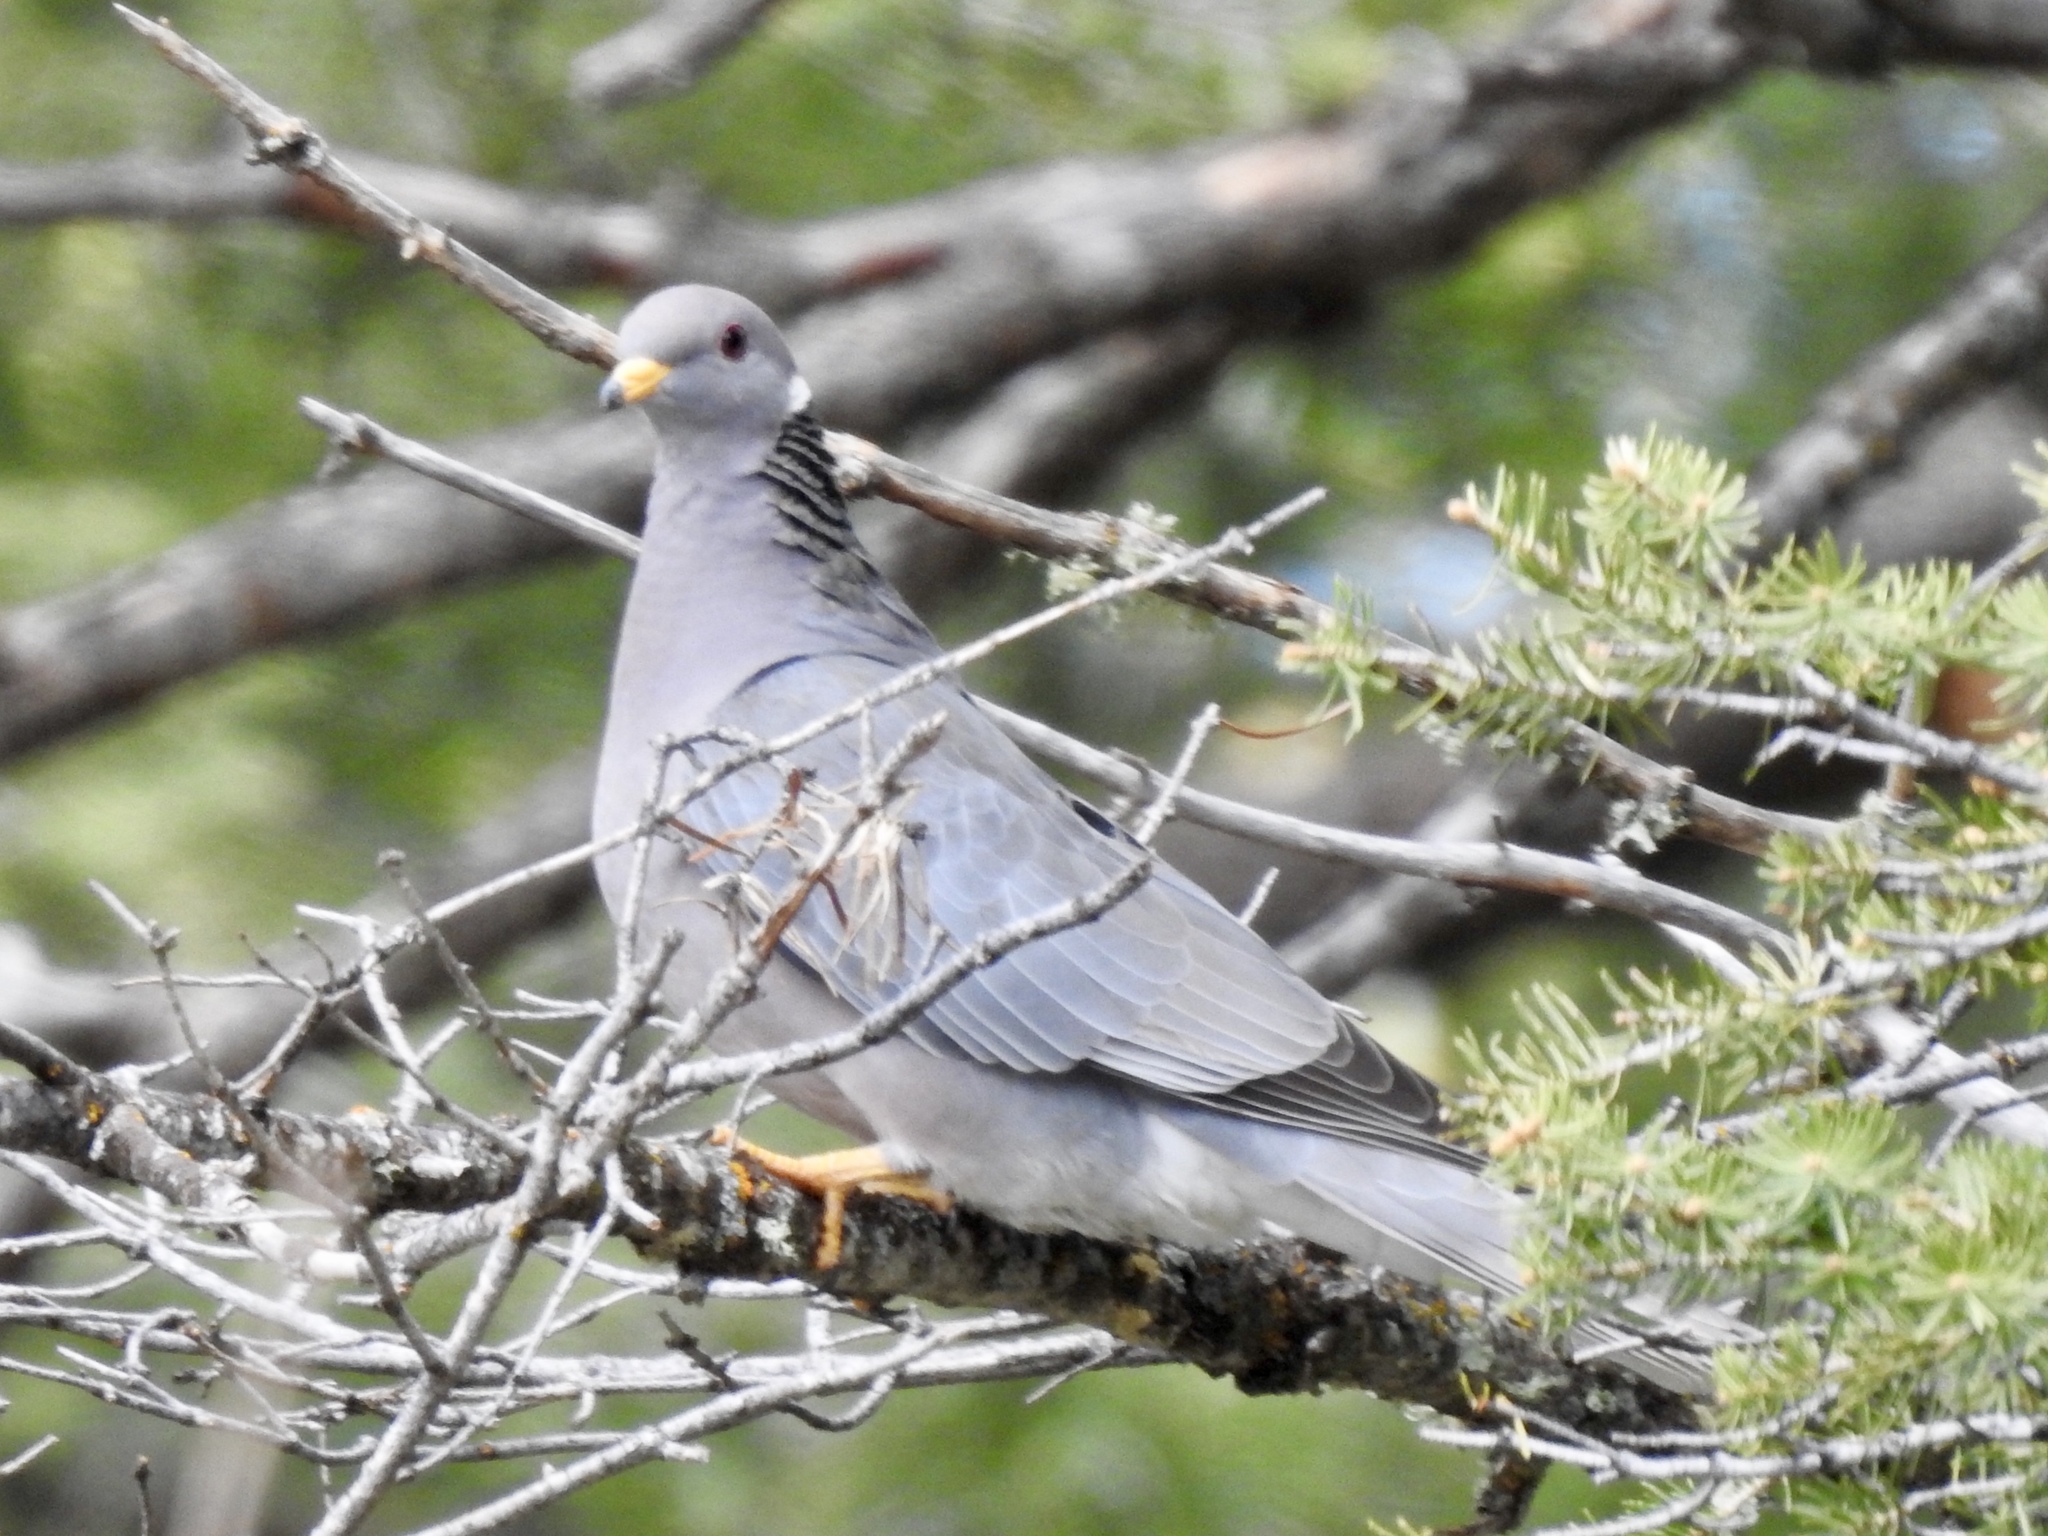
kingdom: Animalia
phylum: Chordata
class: Aves
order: Columbiformes
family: Columbidae
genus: Patagioenas
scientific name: Patagioenas fasciata
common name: Band-tailed pigeon
